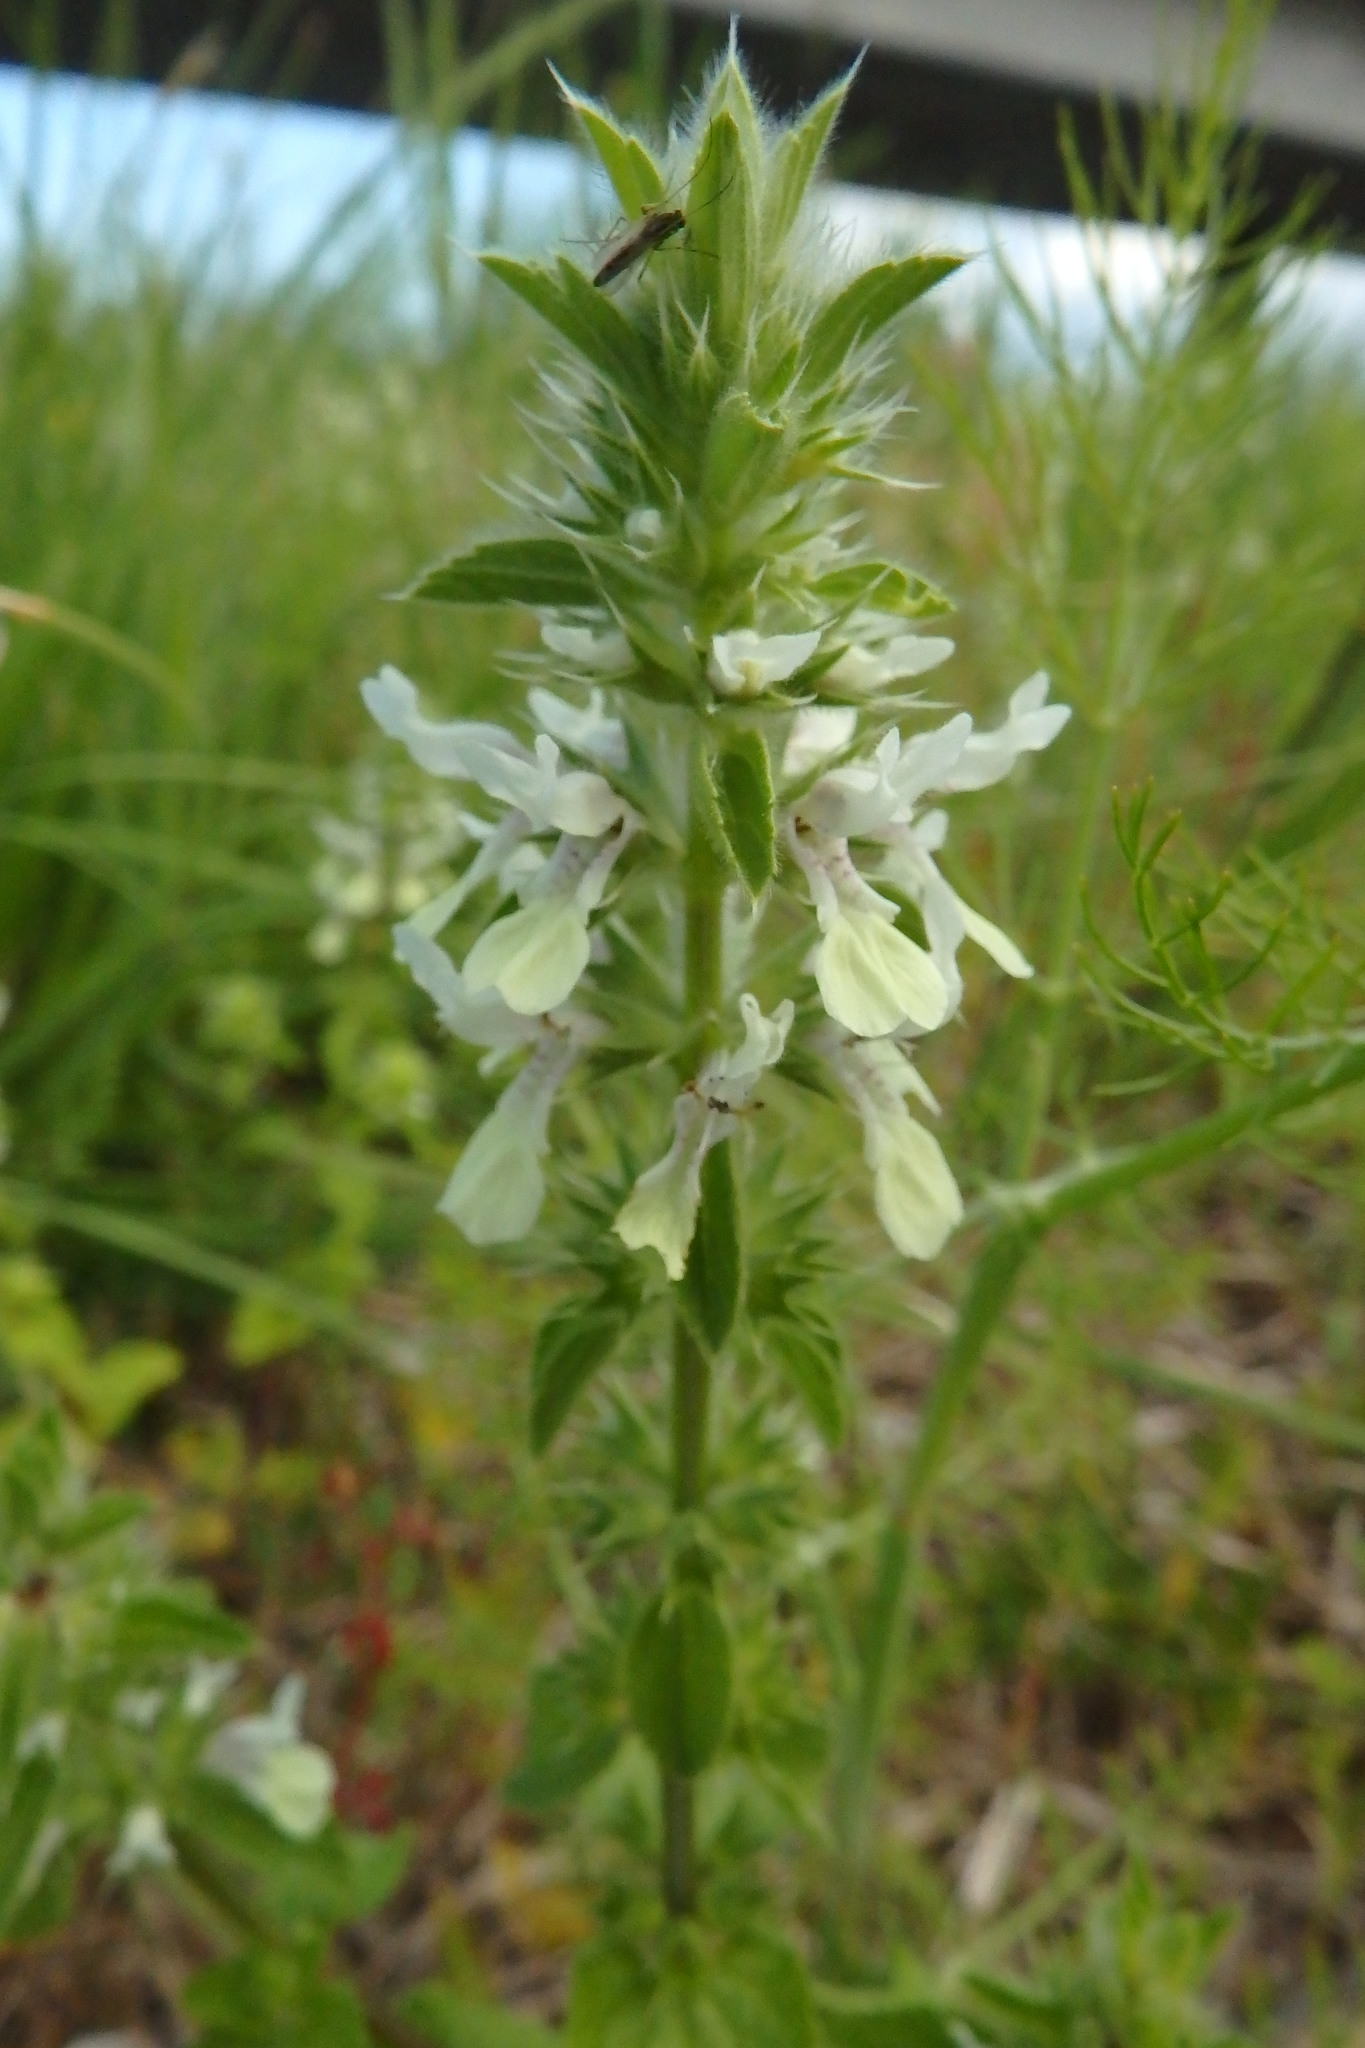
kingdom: Plantae
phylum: Tracheophyta
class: Magnoliopsida
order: Lamiales
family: Lamiaceae
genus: Stachys
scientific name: Stachys ocymastrum
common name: Italian hedgenettle
